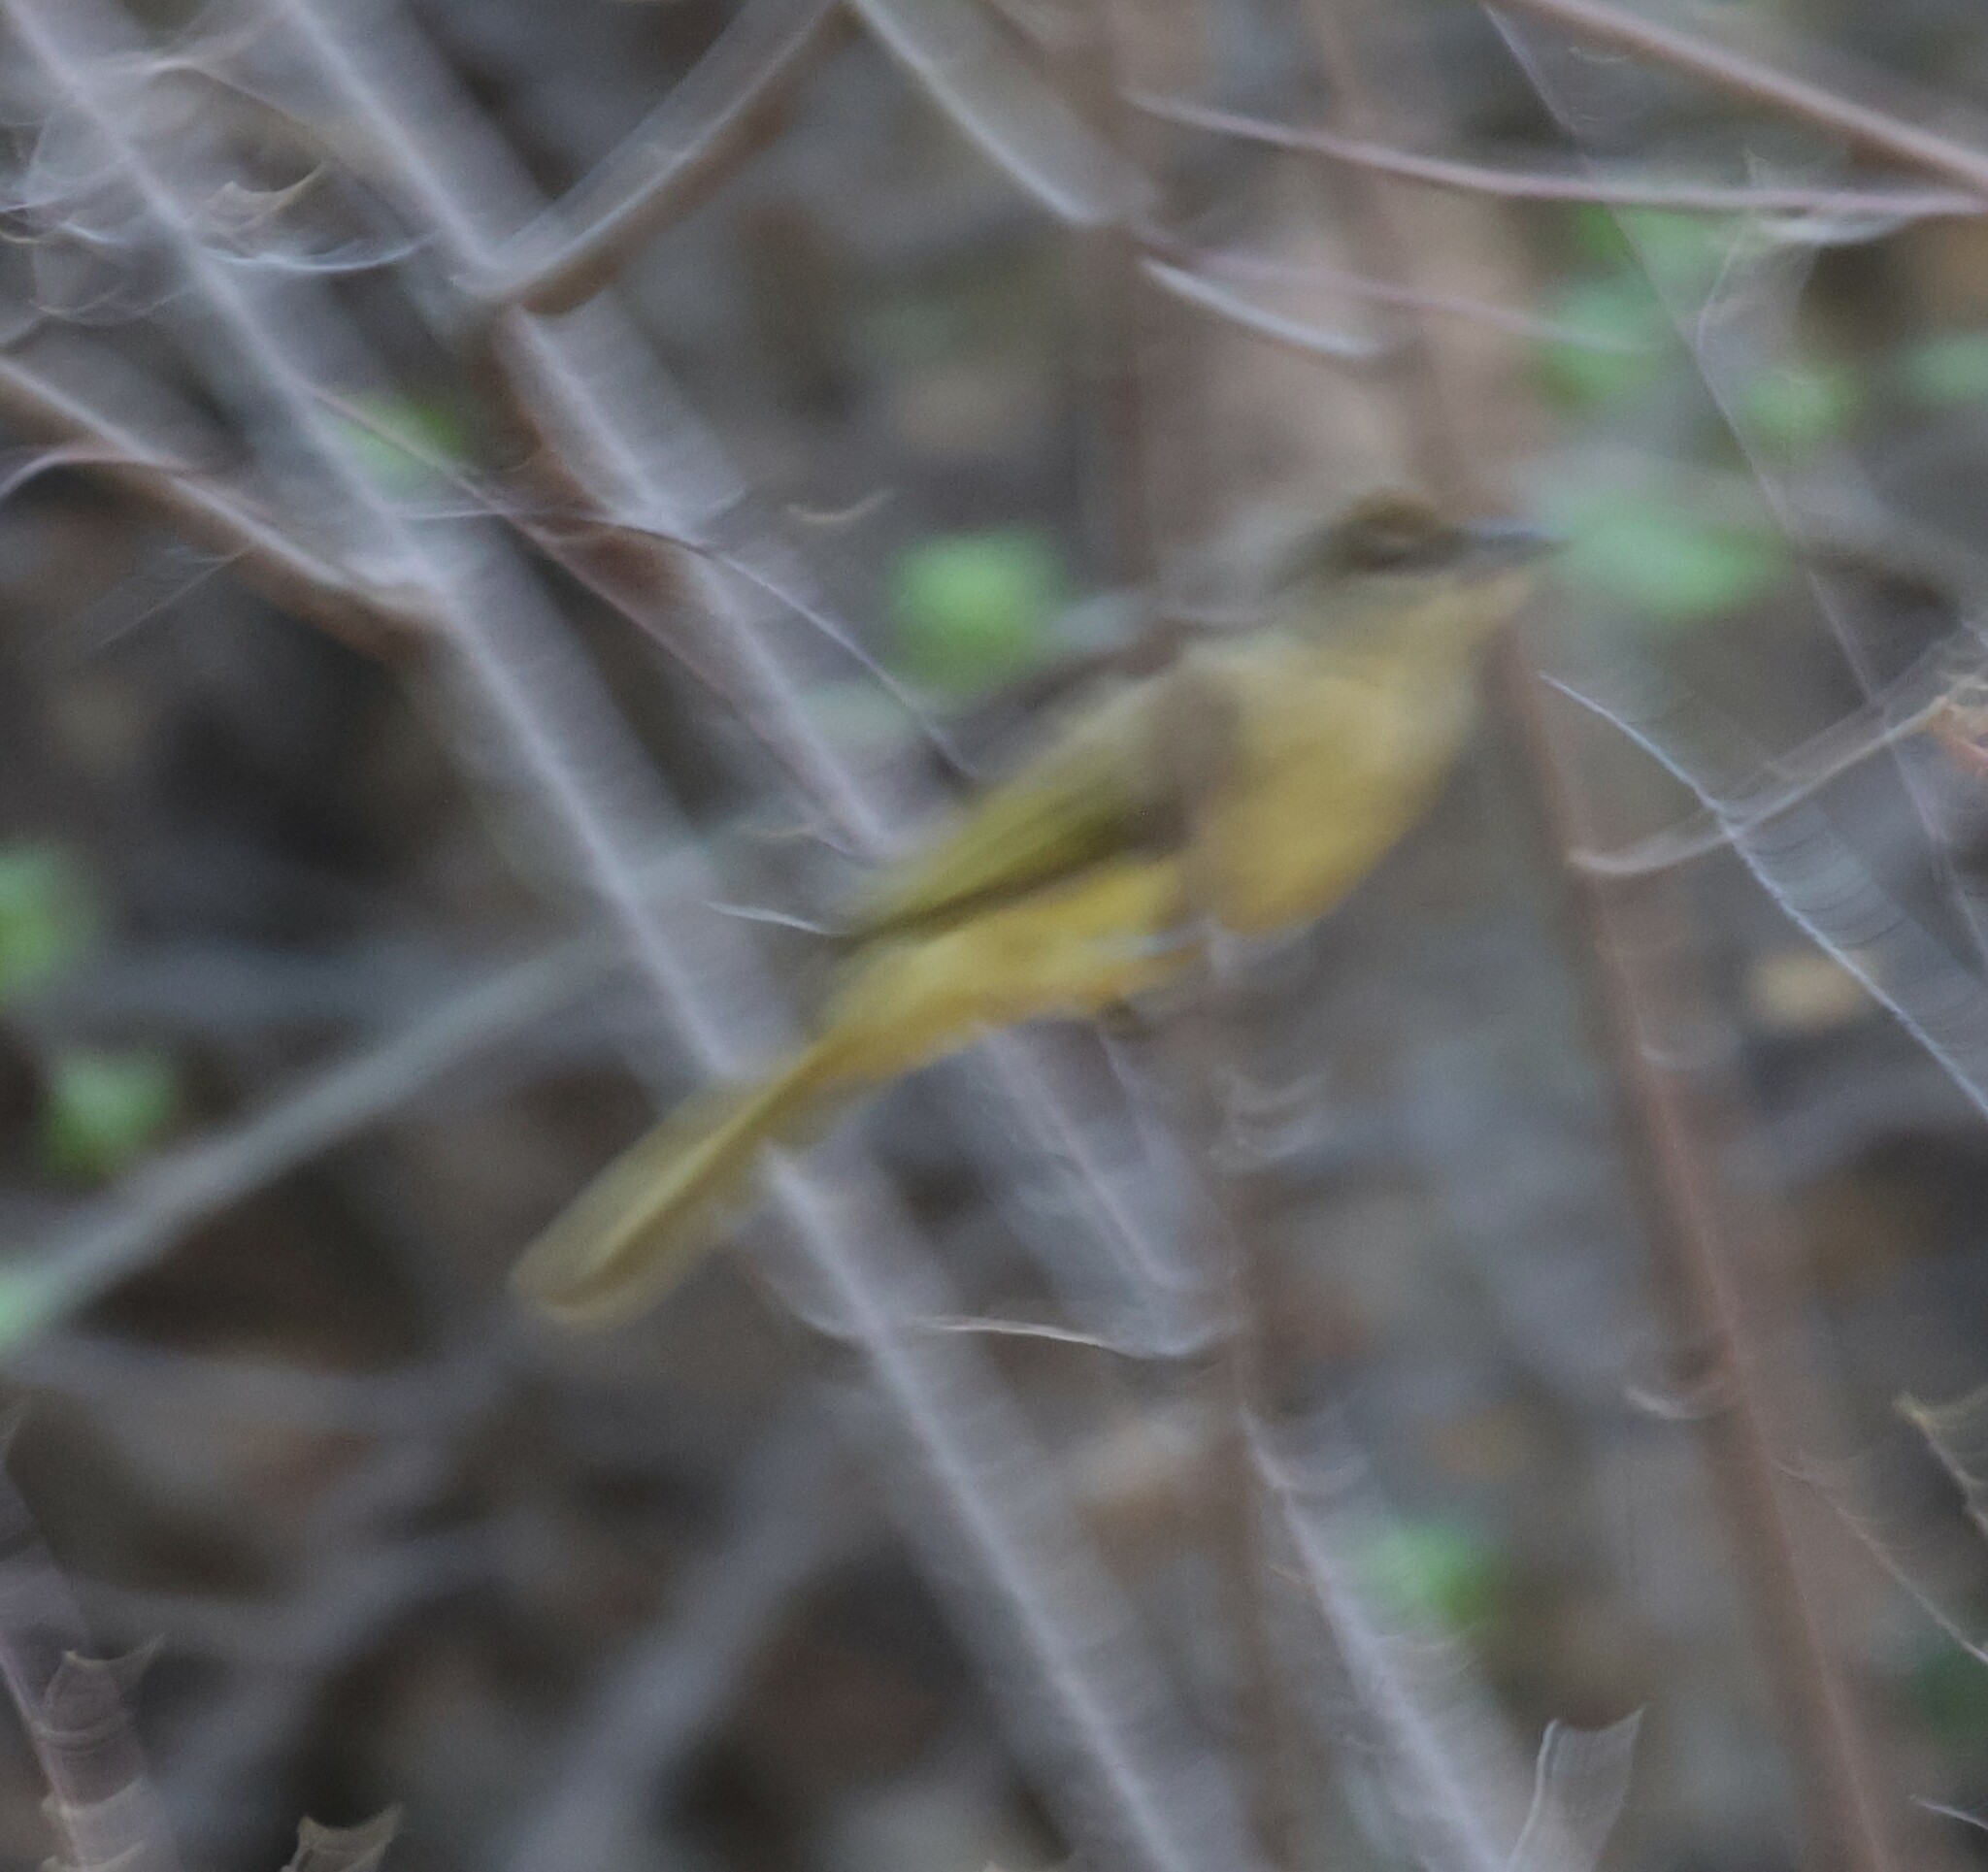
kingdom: Animalia
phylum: Chordata
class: Aves
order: Passeriformes
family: Pycnonotidae
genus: Chlorocichla
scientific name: Chlorocichla flaviventris
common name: Yellow-bellied greenbul
